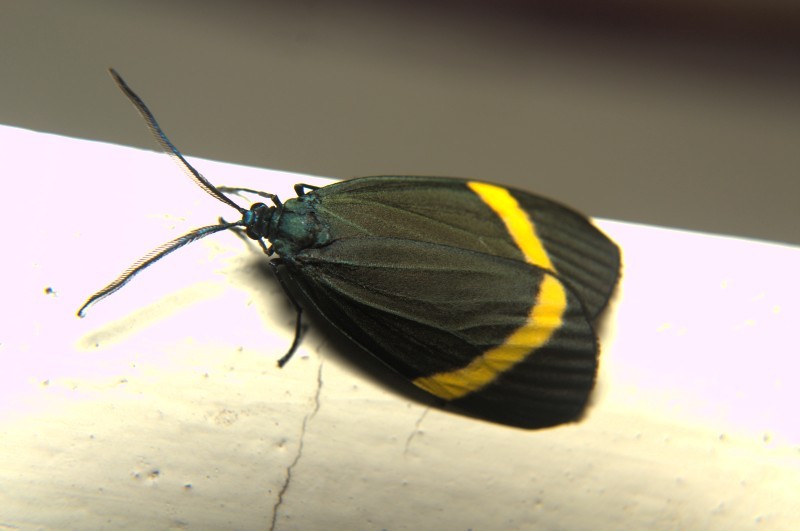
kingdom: Animalia
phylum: Arthropoda
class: Insecta
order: Lepidoptera
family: Zygaenidae
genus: Pidorus
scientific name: Pidorus circe
